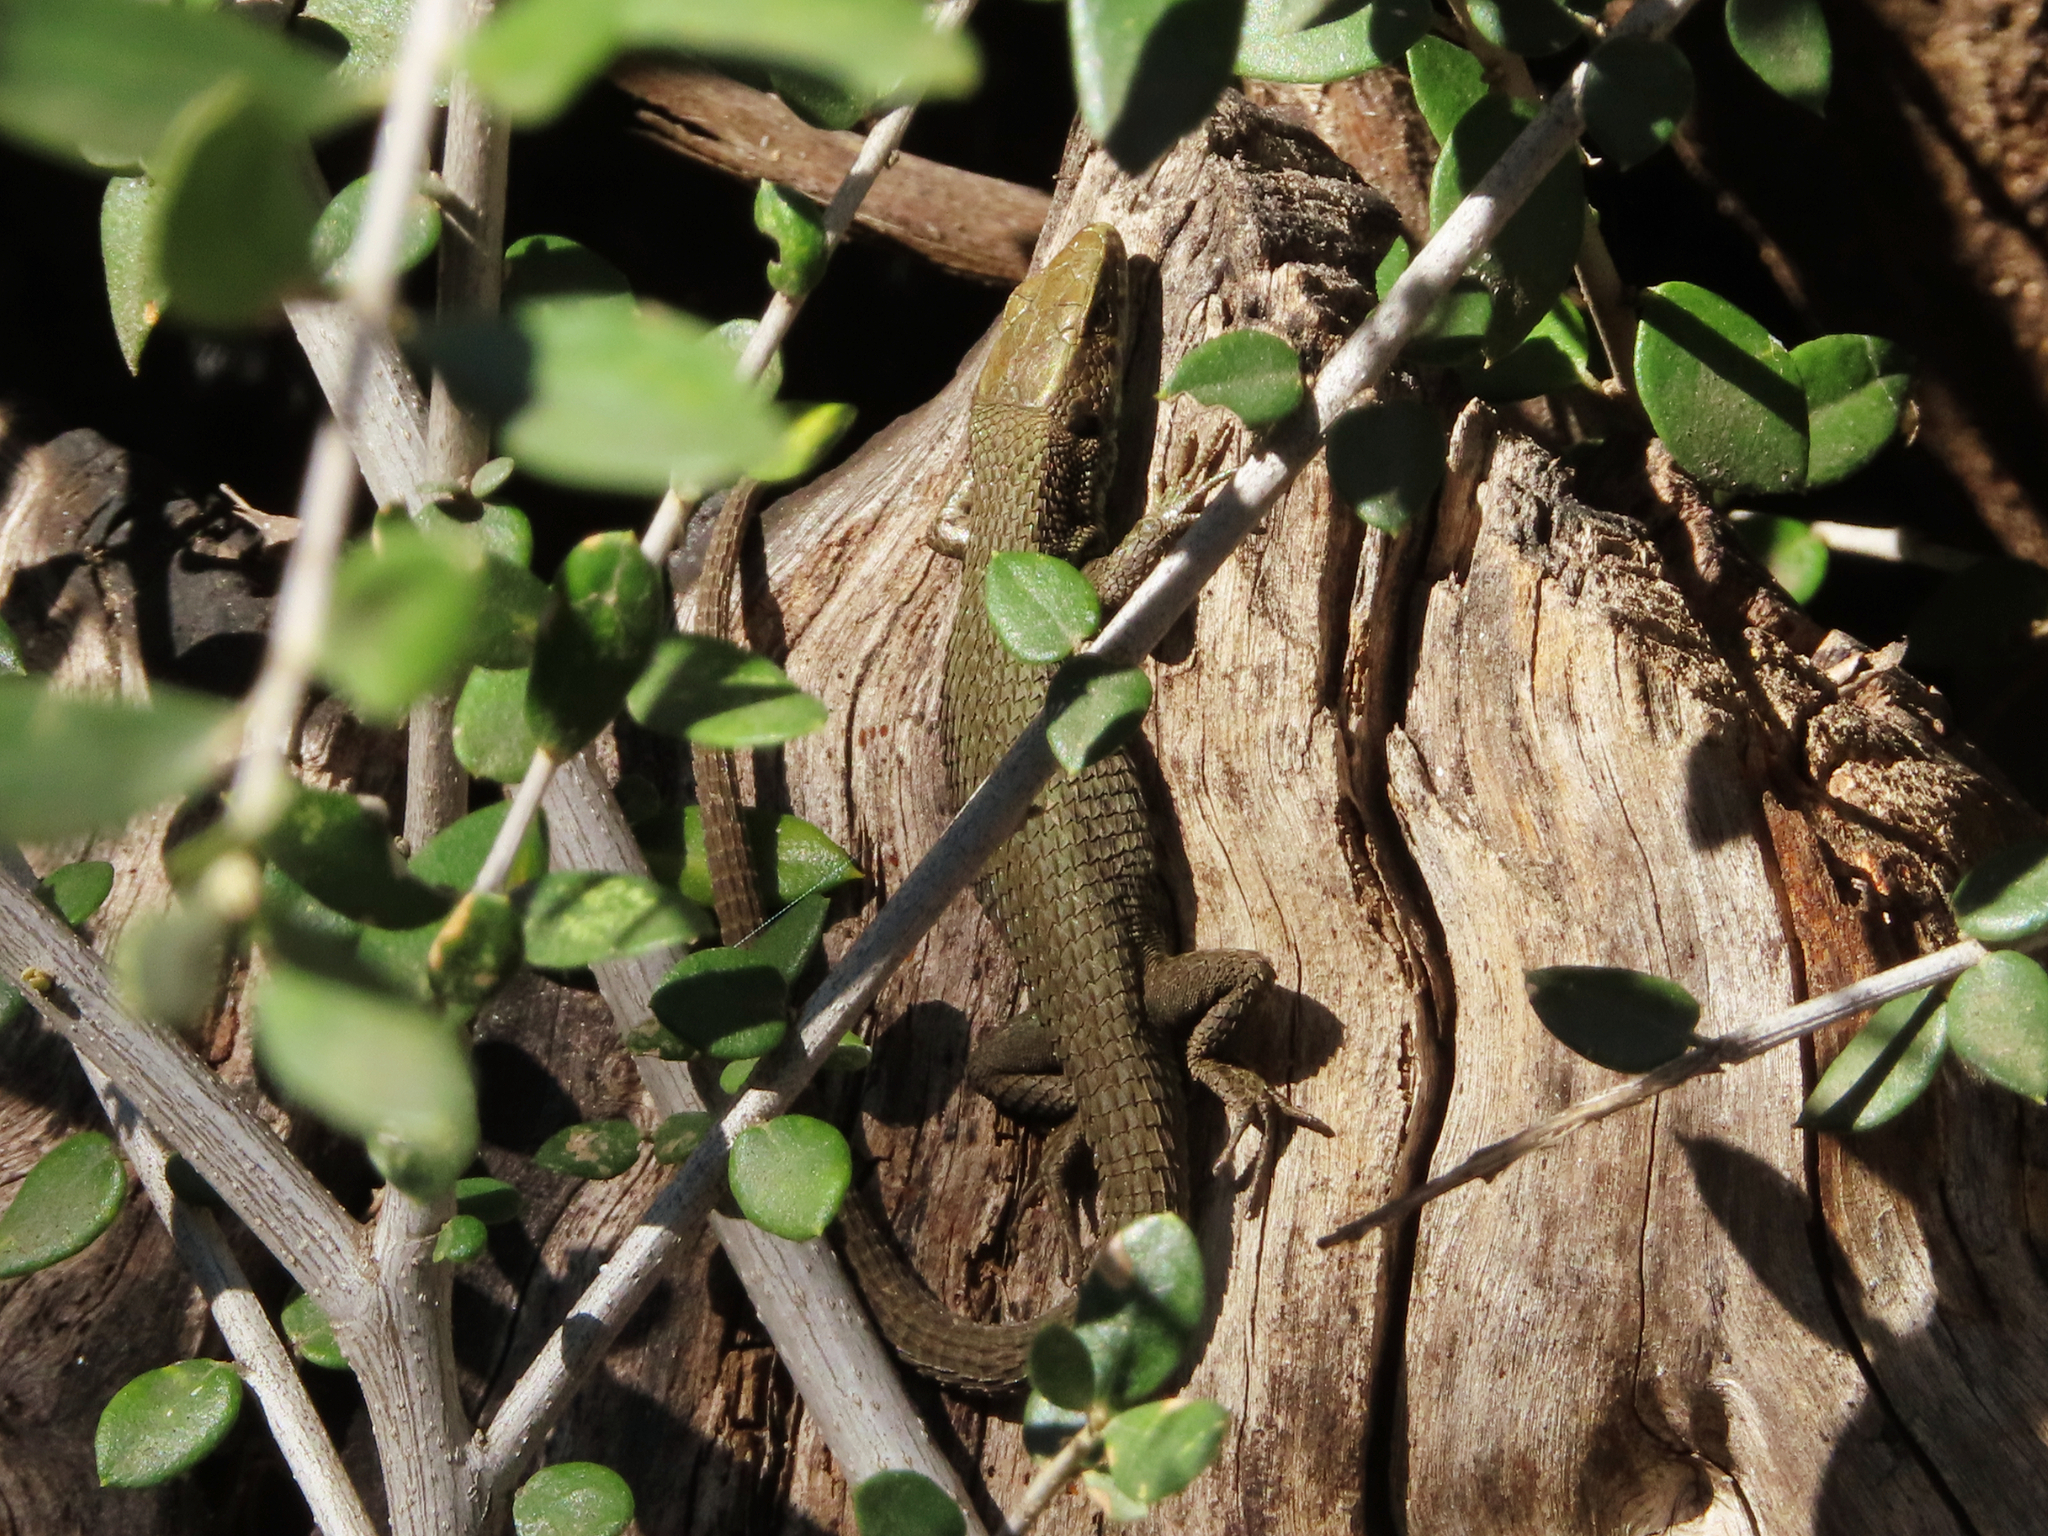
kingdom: Animalia
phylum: Chordata
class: Squamata
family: Lacertidae
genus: Algyroides
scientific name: Algyroides moreoticus
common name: Greek algyroides
